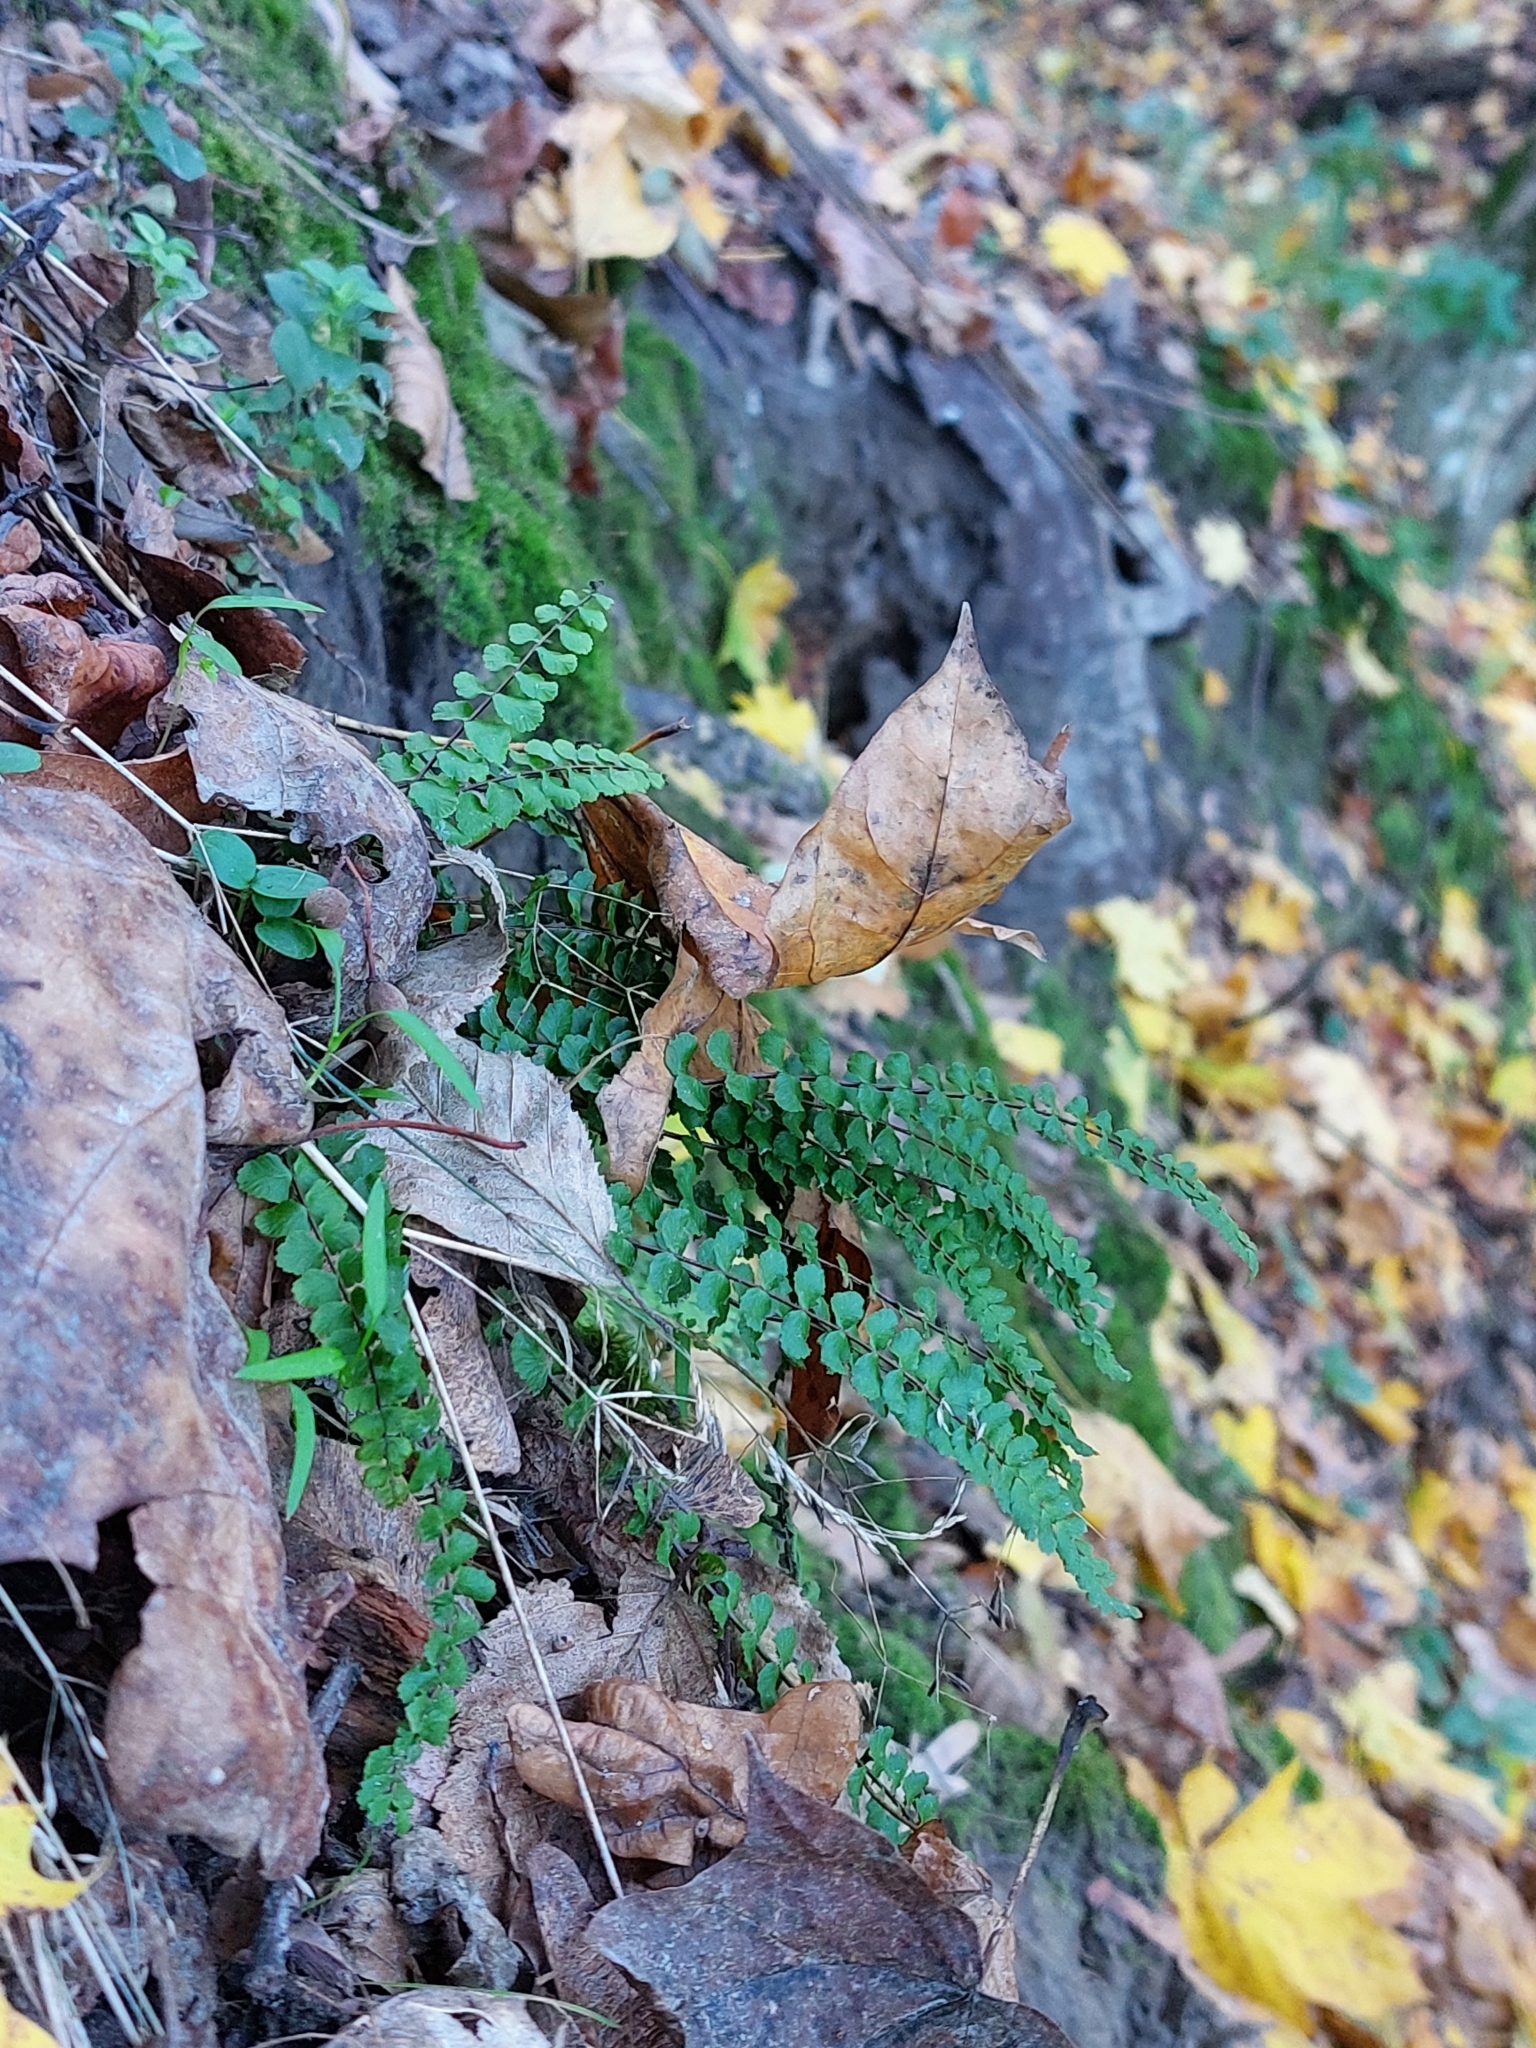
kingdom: Plantae
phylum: Tracheophyta
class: Polypodiopsida
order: Polypodiales
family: Aspleniaceae
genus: Asplenium
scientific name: Asplenium trichomanes
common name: Maidenhair spleenwort
